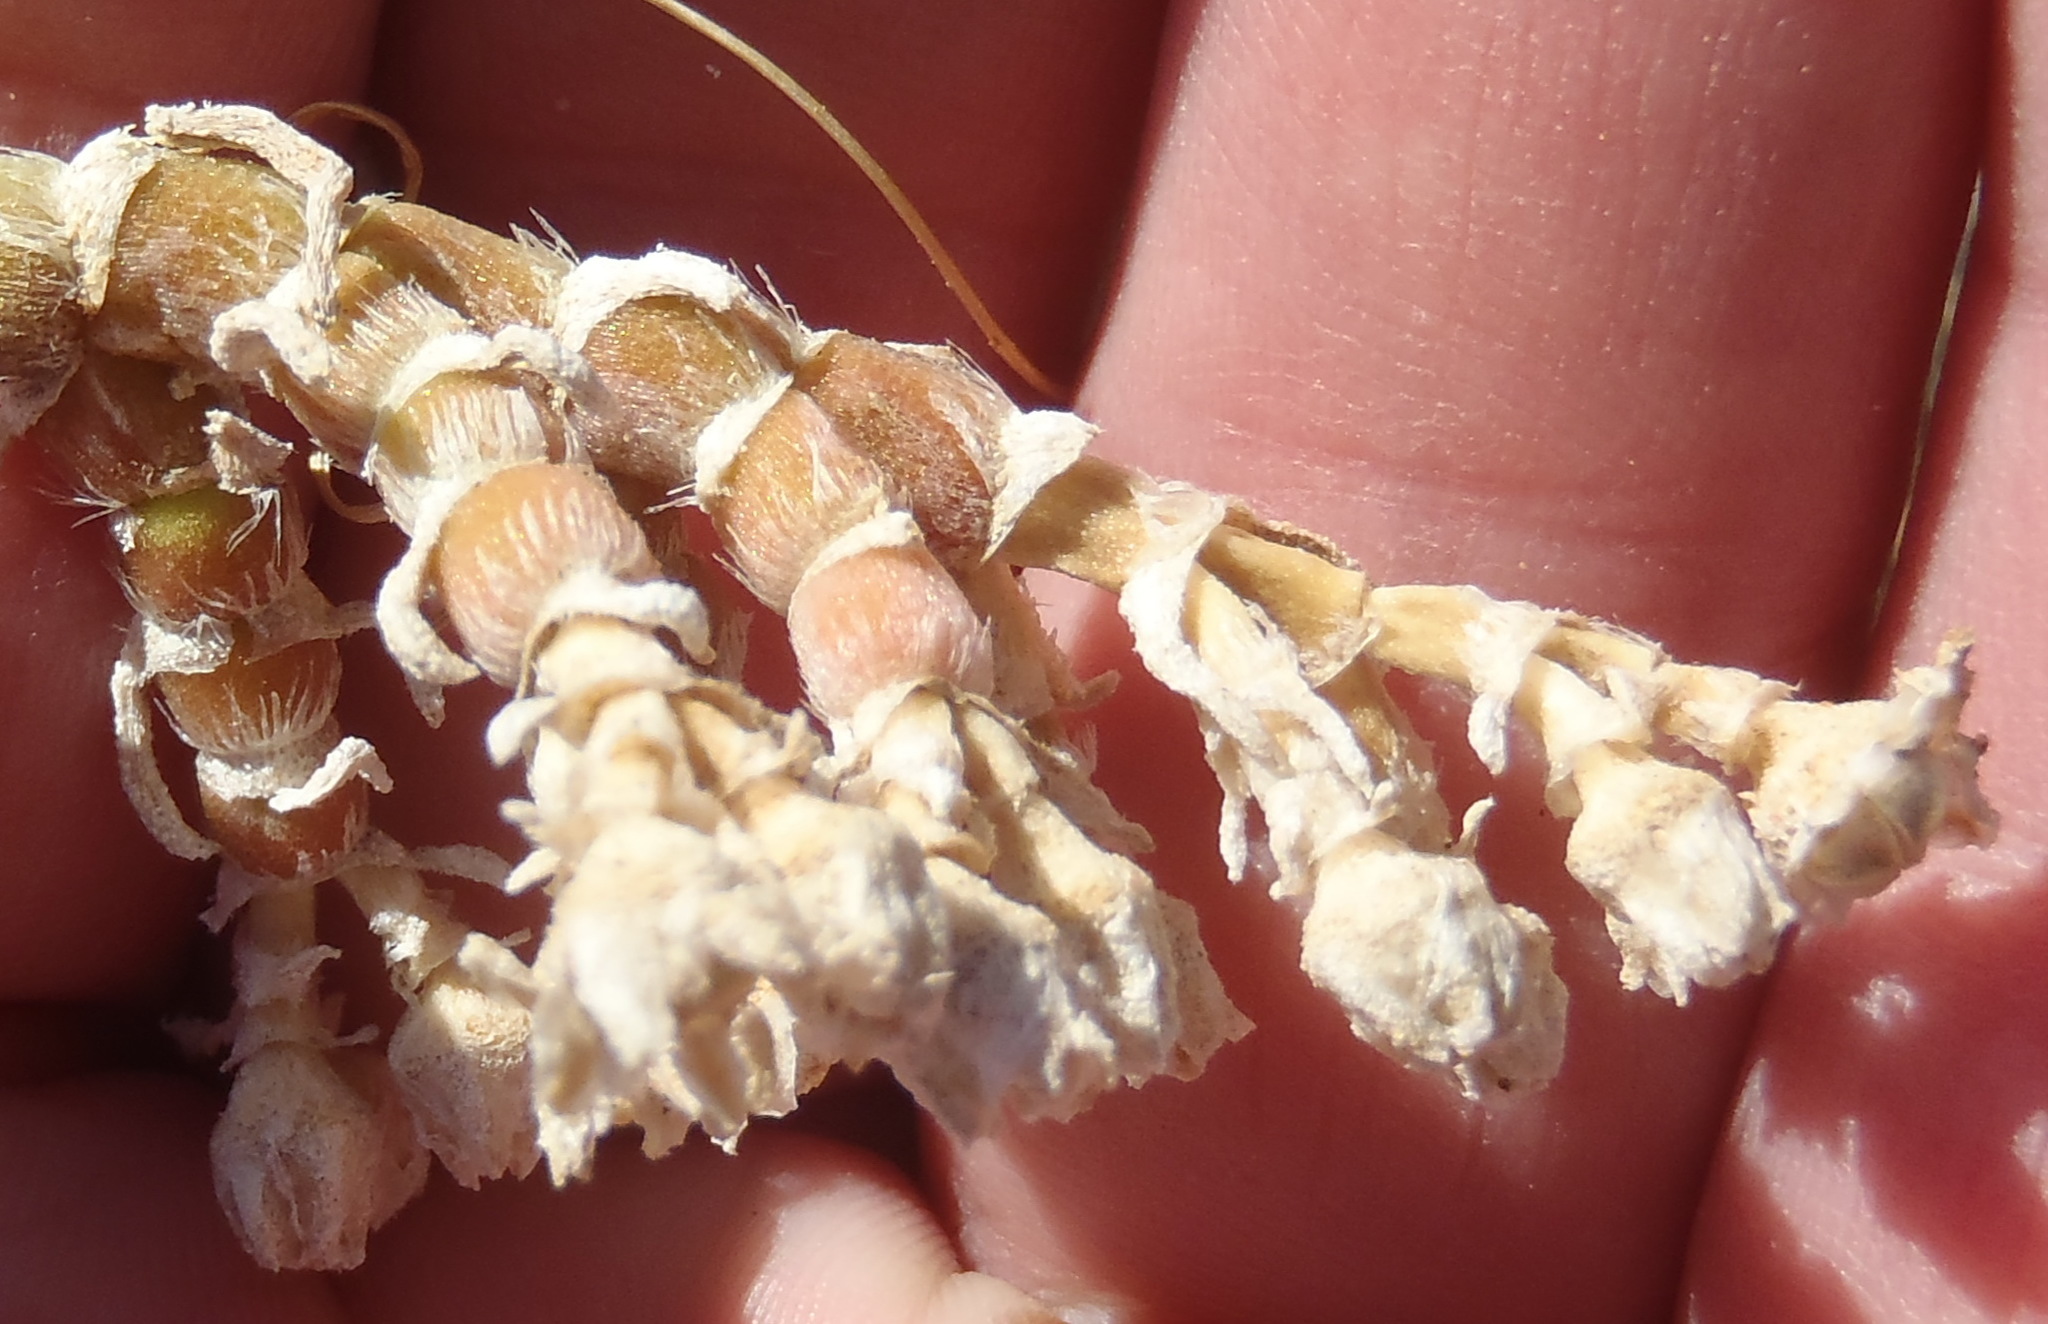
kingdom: Plantae
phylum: Tracheophyta
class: Magnoliopsida
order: Caryophyllales
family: Aizoaceae
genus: Mesembryanthemum
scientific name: Mesembryanthemum vaginatum
